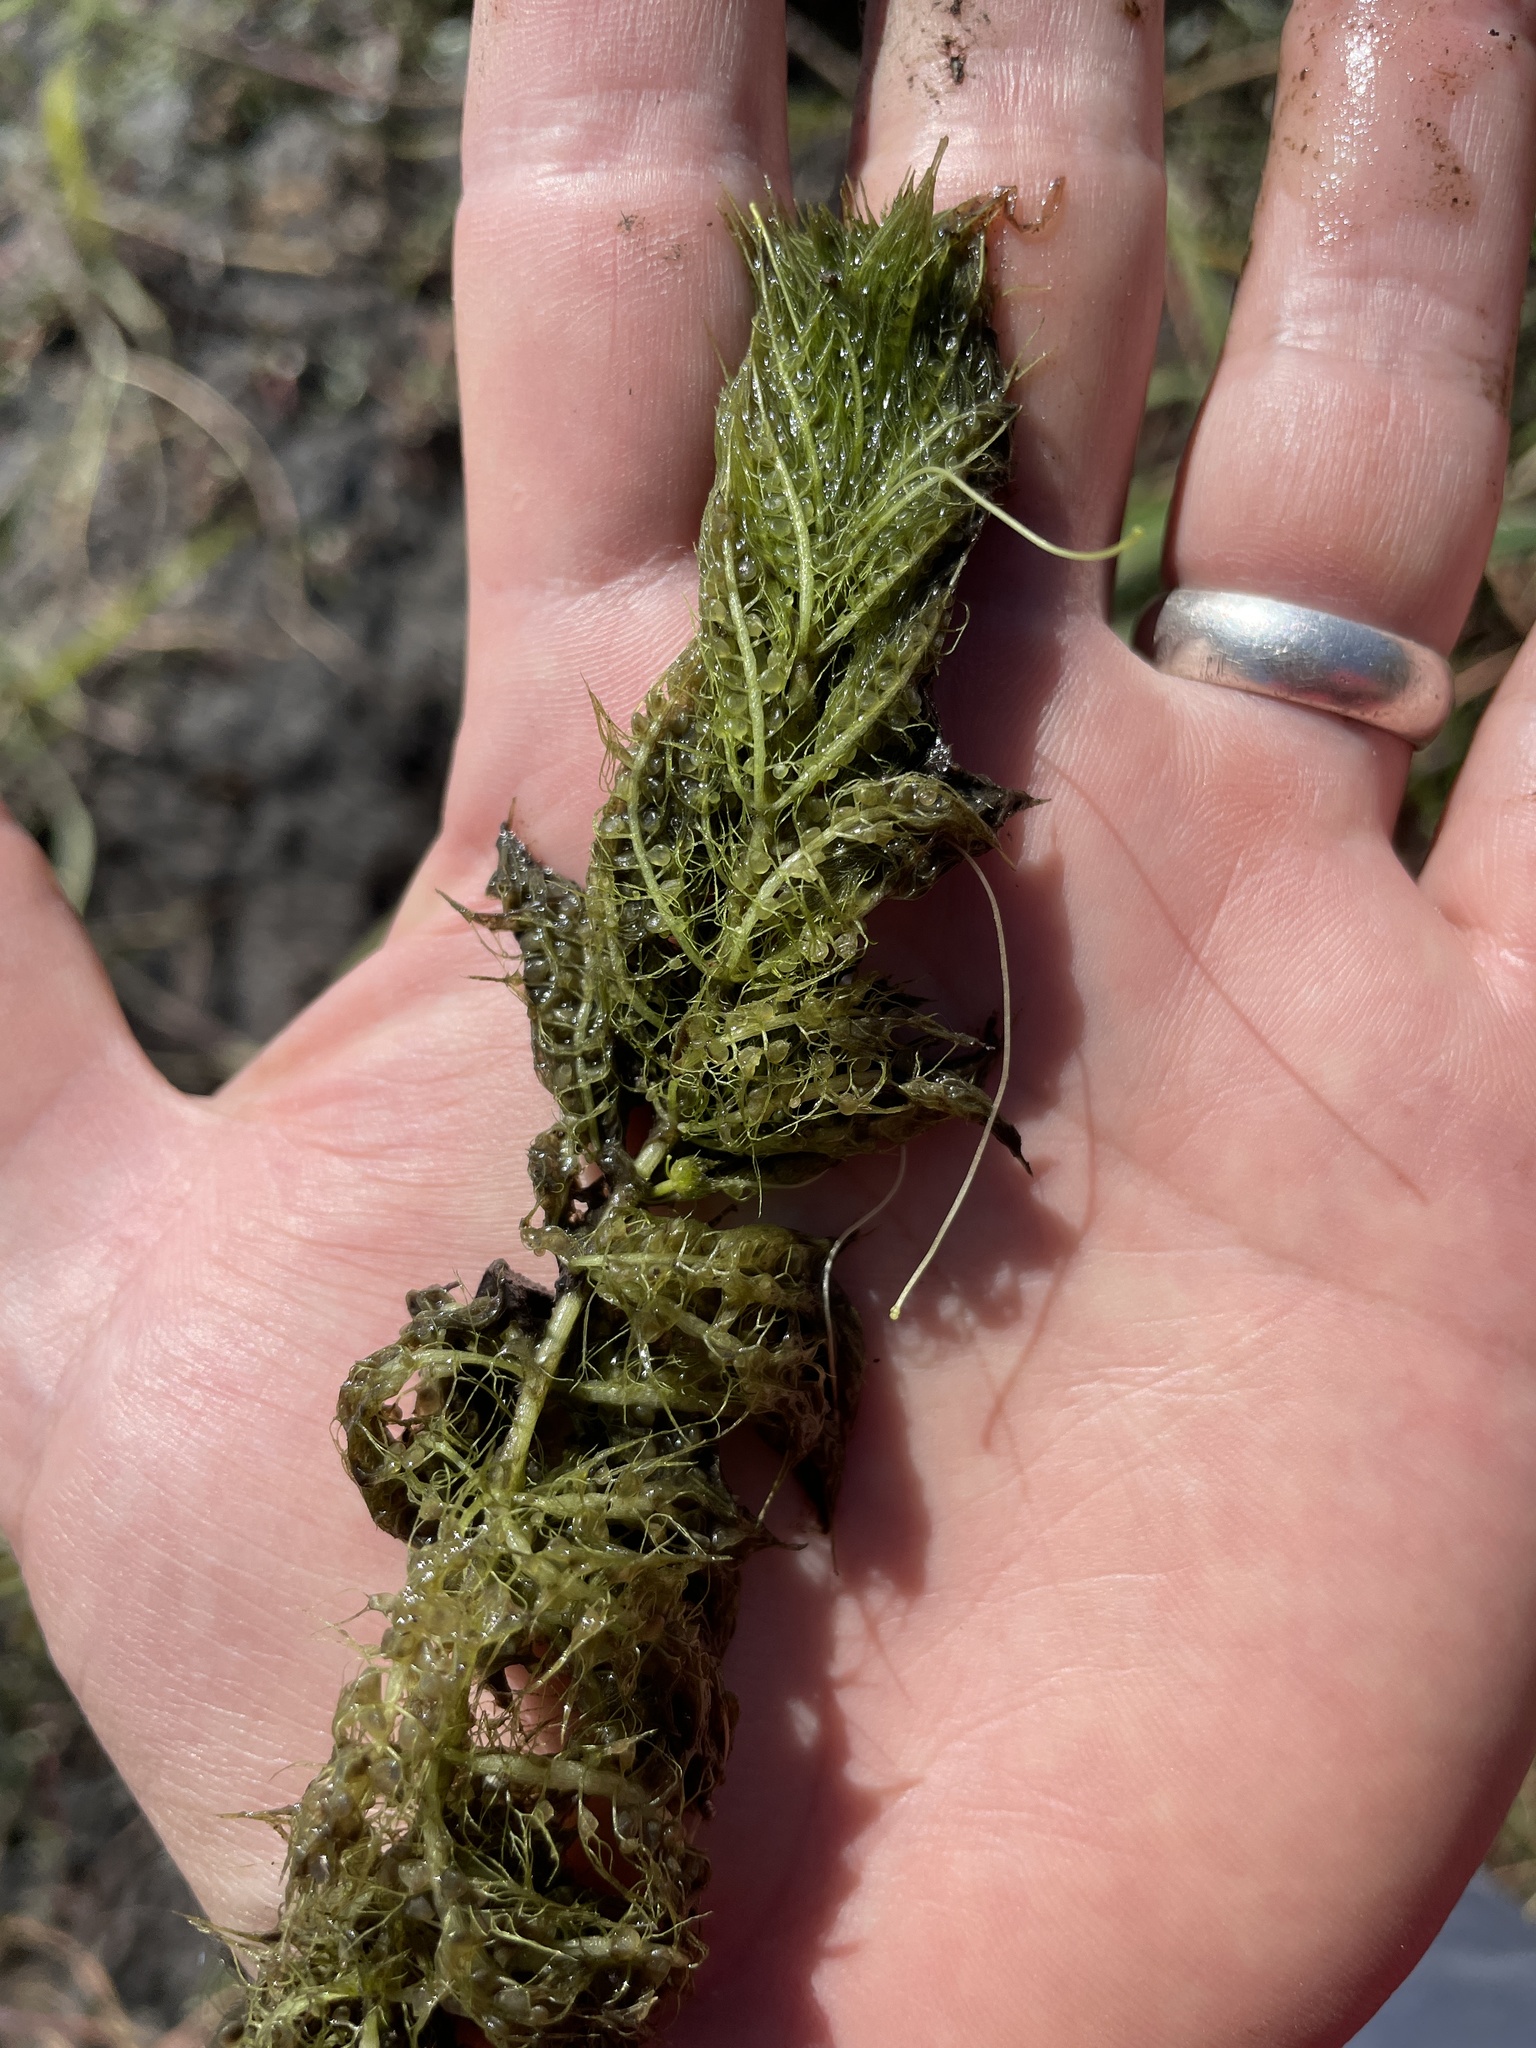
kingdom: Plantae
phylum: Tracheophyta
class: Magnoliopsida
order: Lamiales
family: Lentibulariaceae
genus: Utricularia
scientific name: Utricularia stellaris
